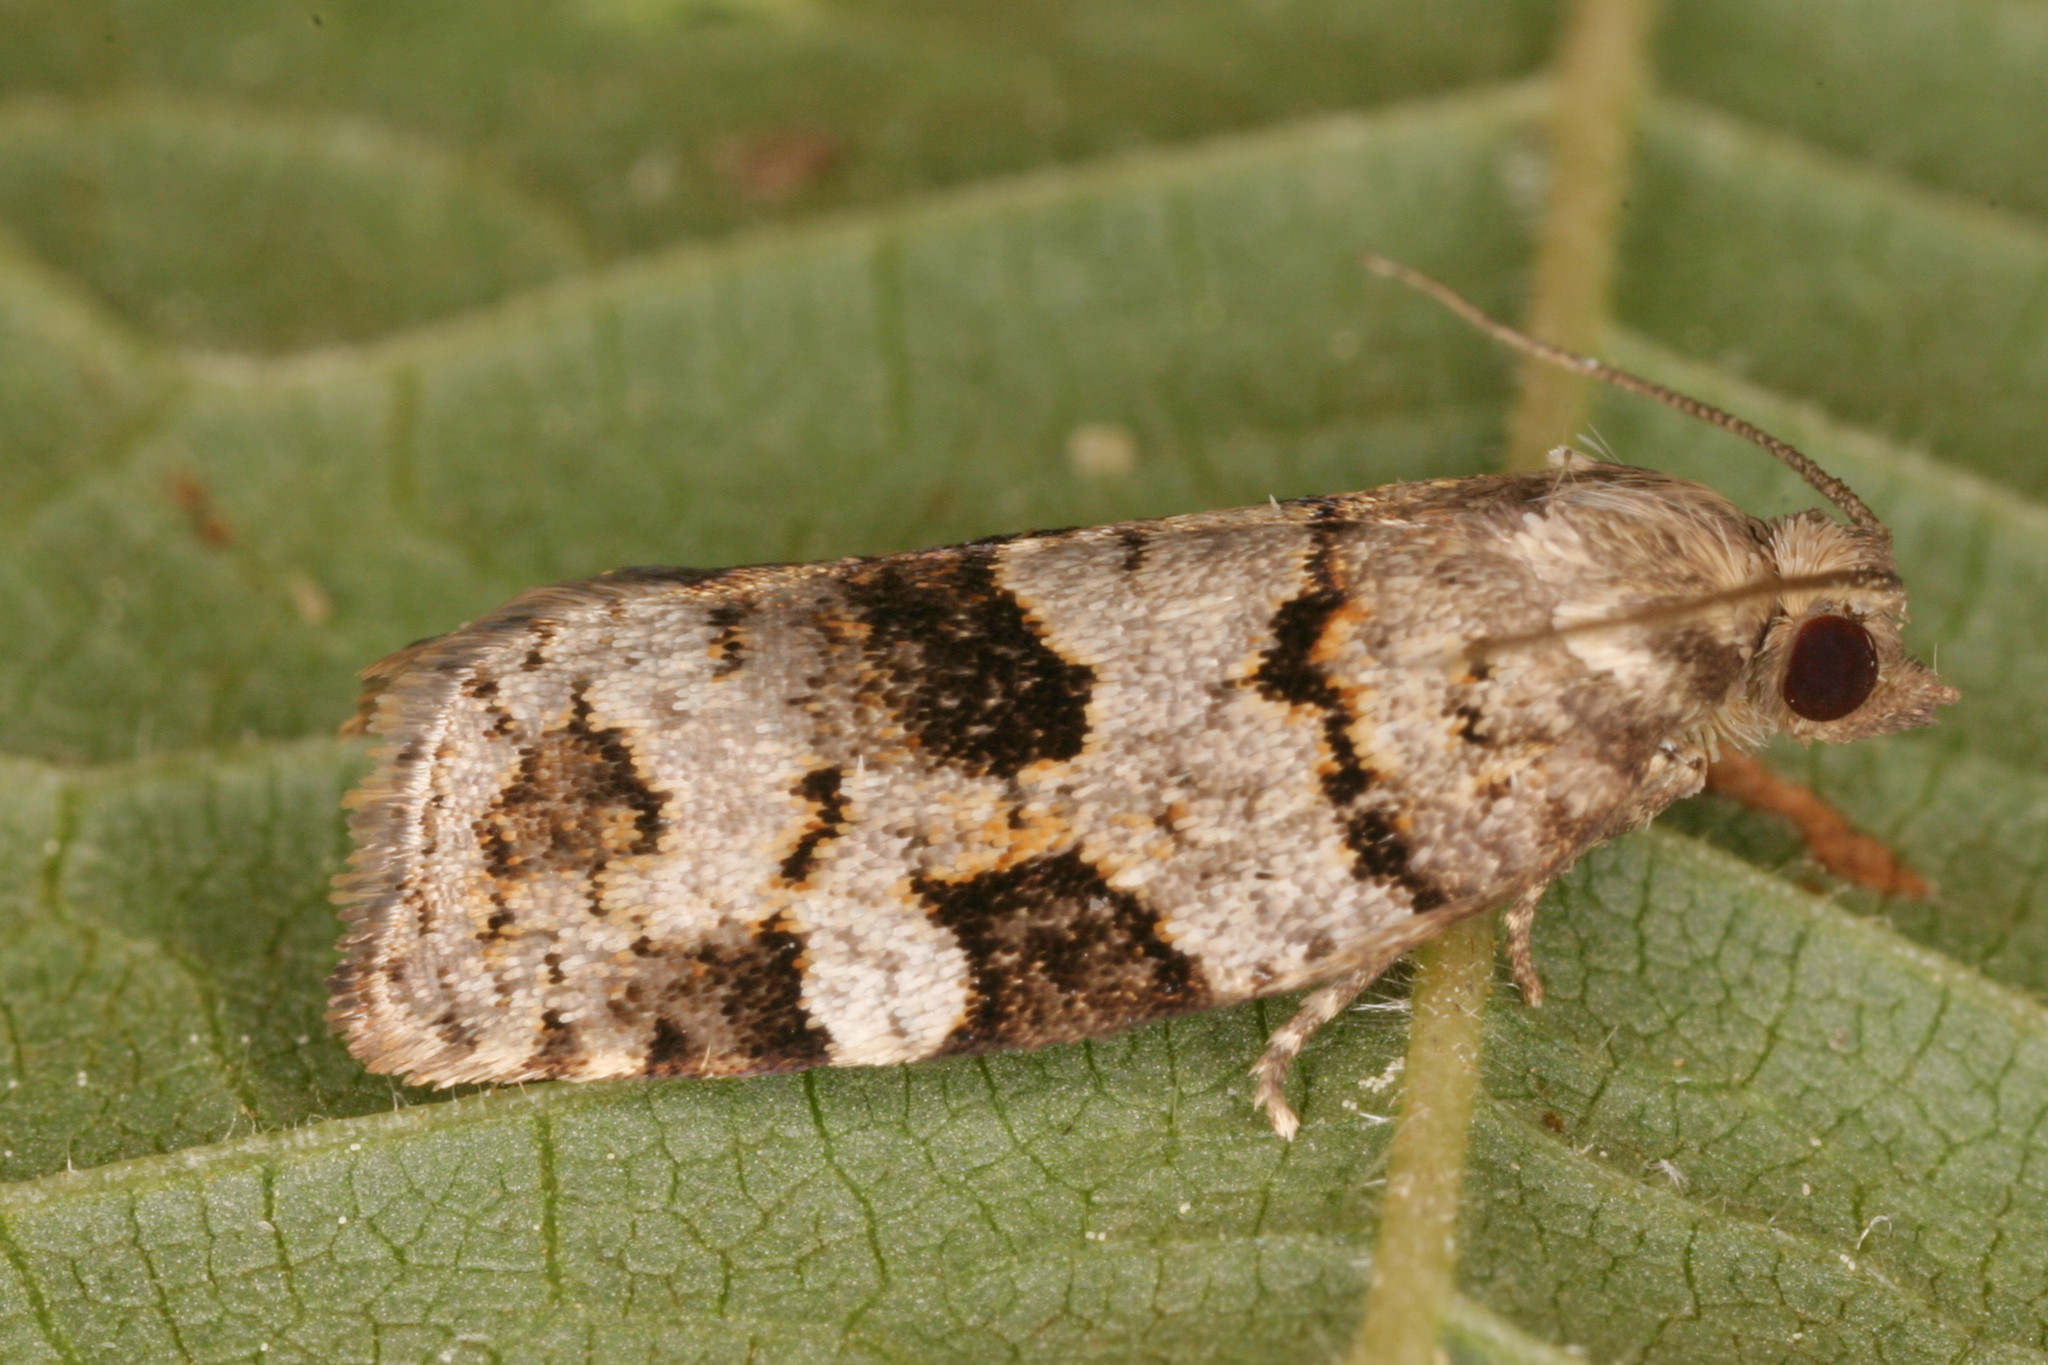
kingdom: Animalia
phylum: Arthropoda
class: Insecta
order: Lepidoptera
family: Tortricidae
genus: Dichelia
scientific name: Dichelia histrionana
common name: Tortricid moth
